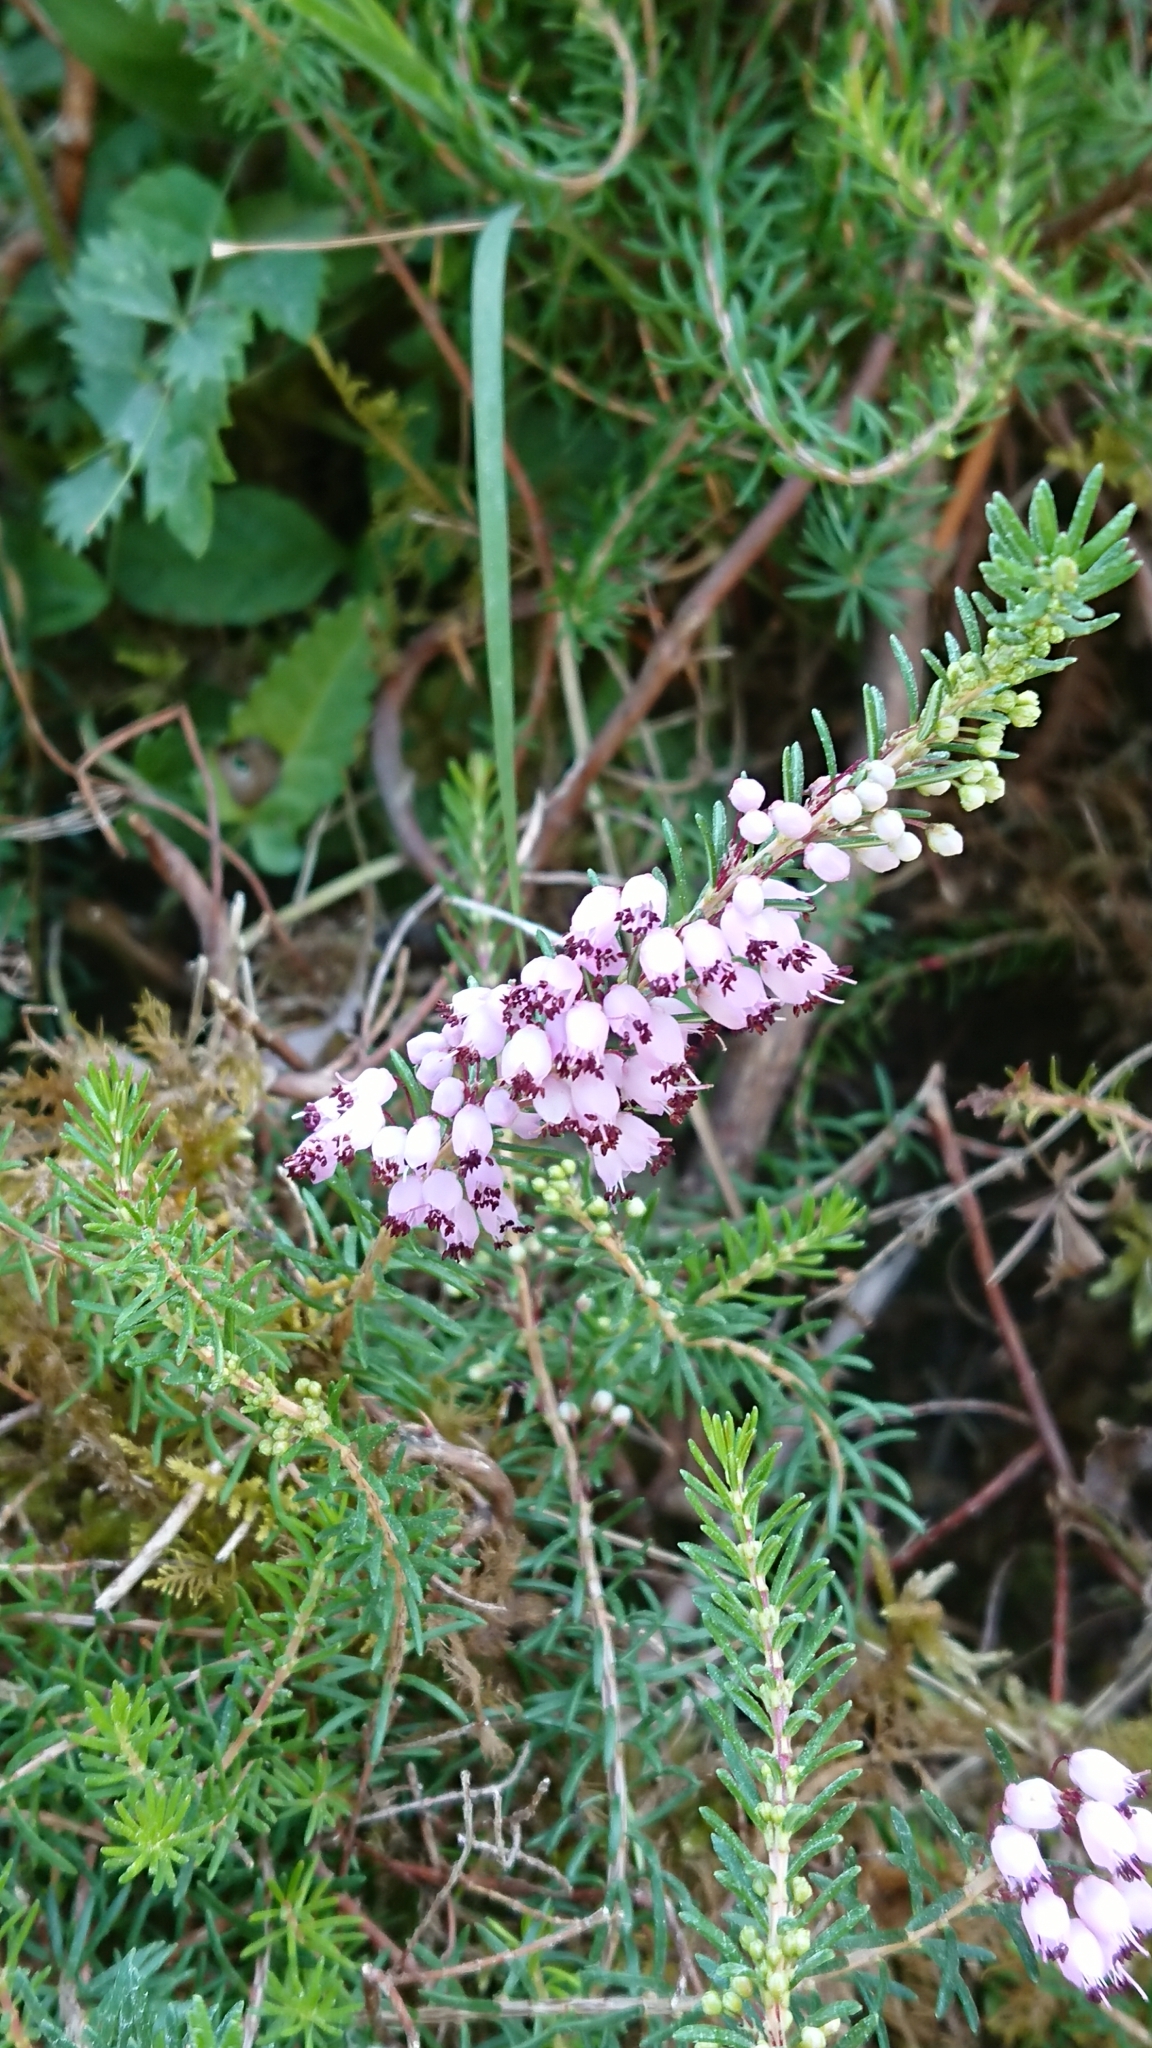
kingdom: Plantae
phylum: Tracheophyta
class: Magnoliopsida
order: Ericales
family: Ericaceae
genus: Erica
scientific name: Erica vagans
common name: Cornish heath
